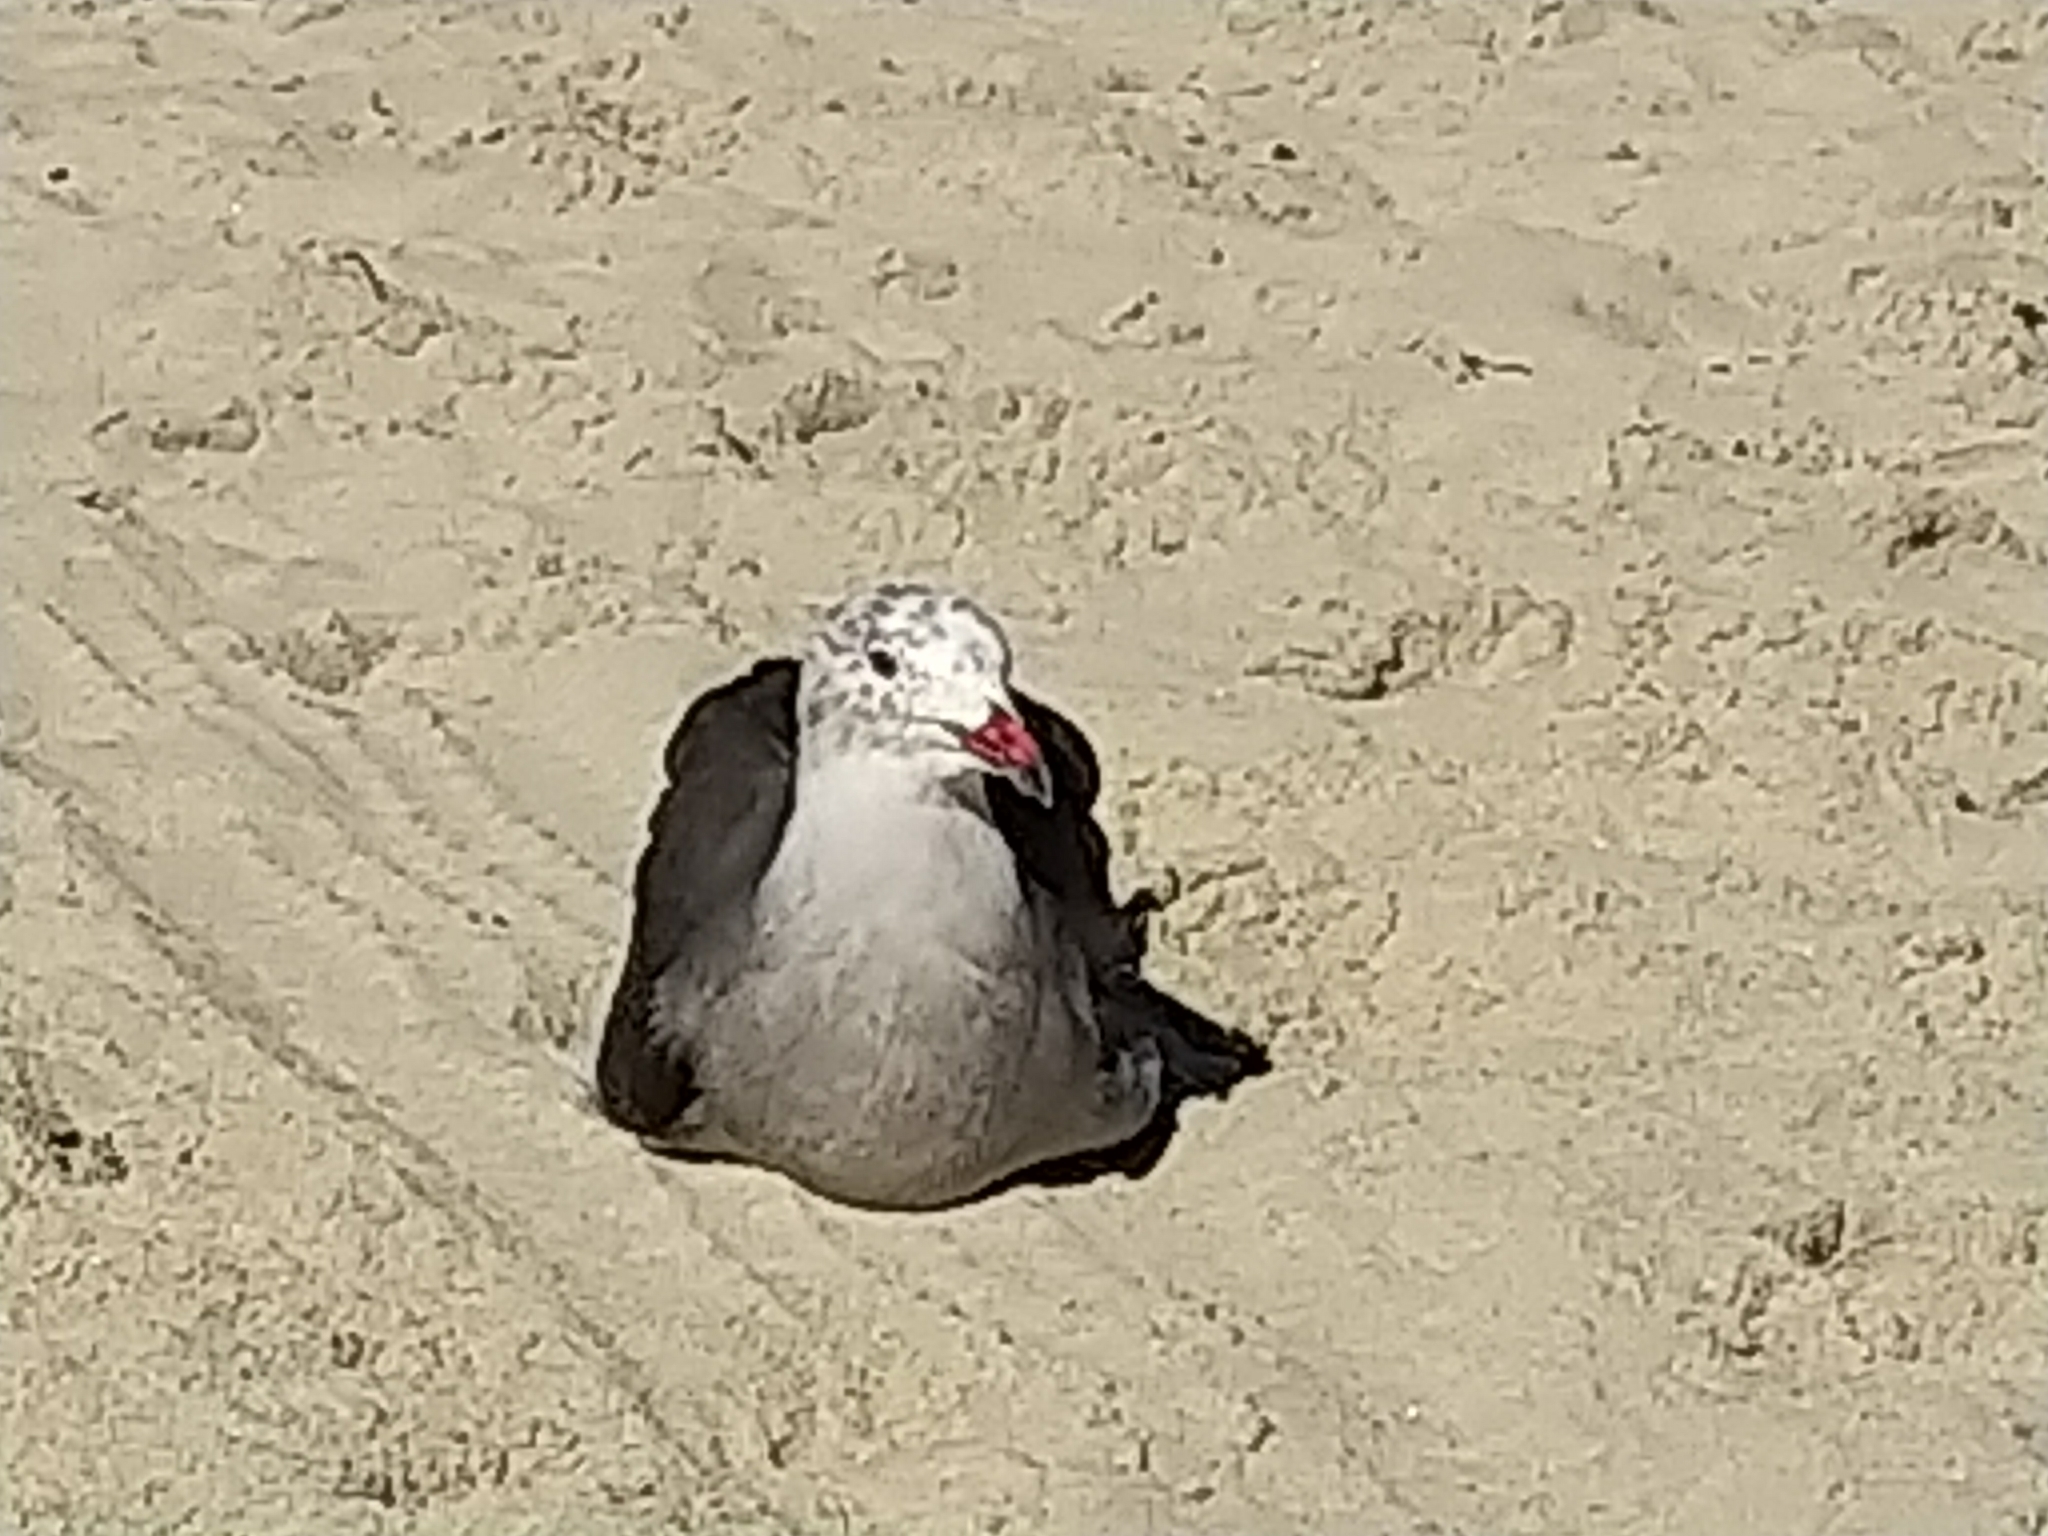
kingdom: Animalia
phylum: Chordata
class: Aves
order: Charadriiformes
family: Laridae
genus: Larus
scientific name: Larus heermanni
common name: Heermann's gull
